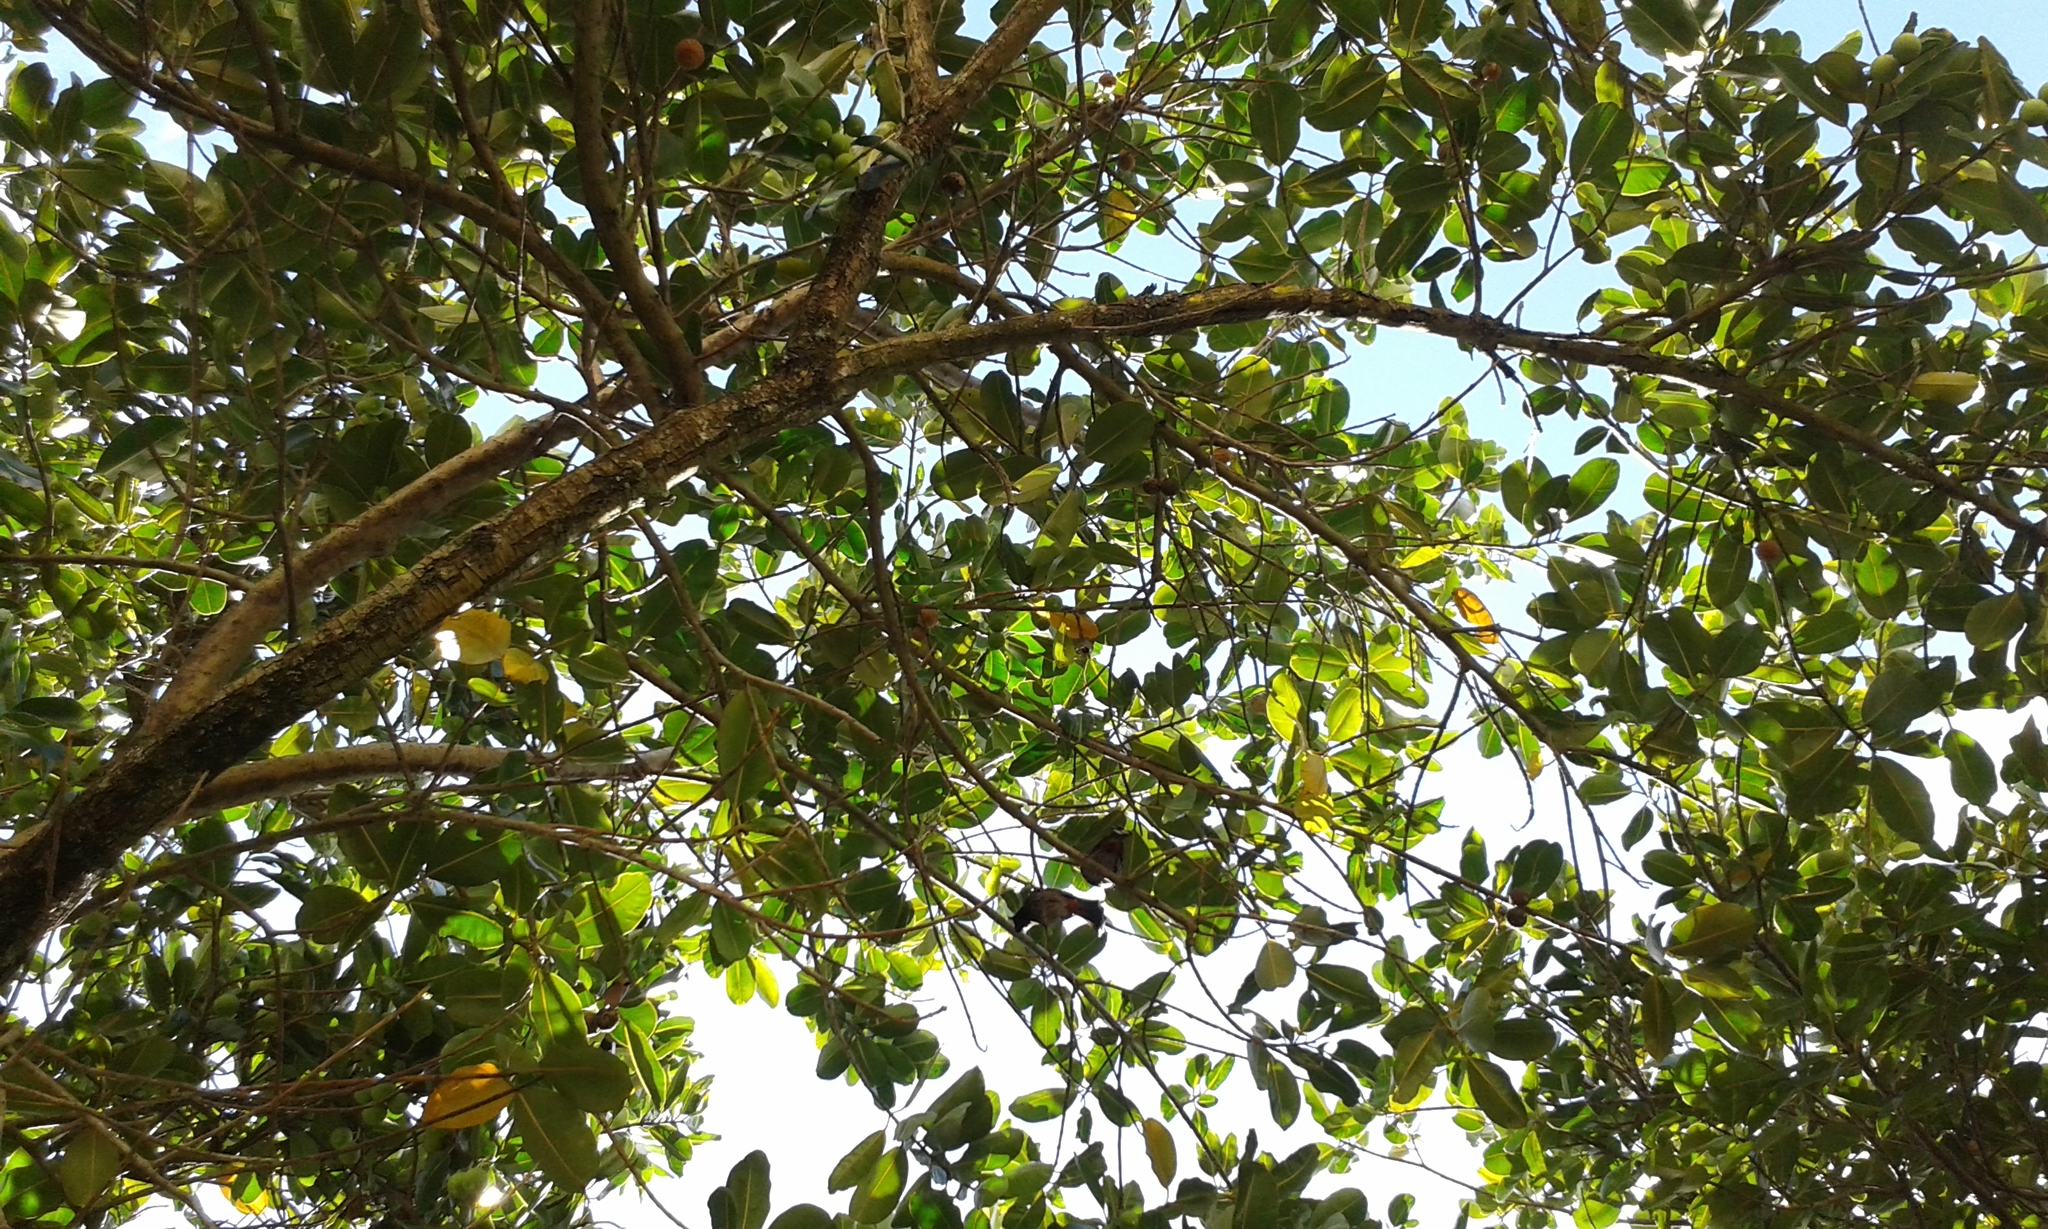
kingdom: Animalia
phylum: Chordata
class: Aves
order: Passeriformes
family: Pycnonotidae
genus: Pycnonotus
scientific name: Pycnonotus cafer
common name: Red-vented bulbul
